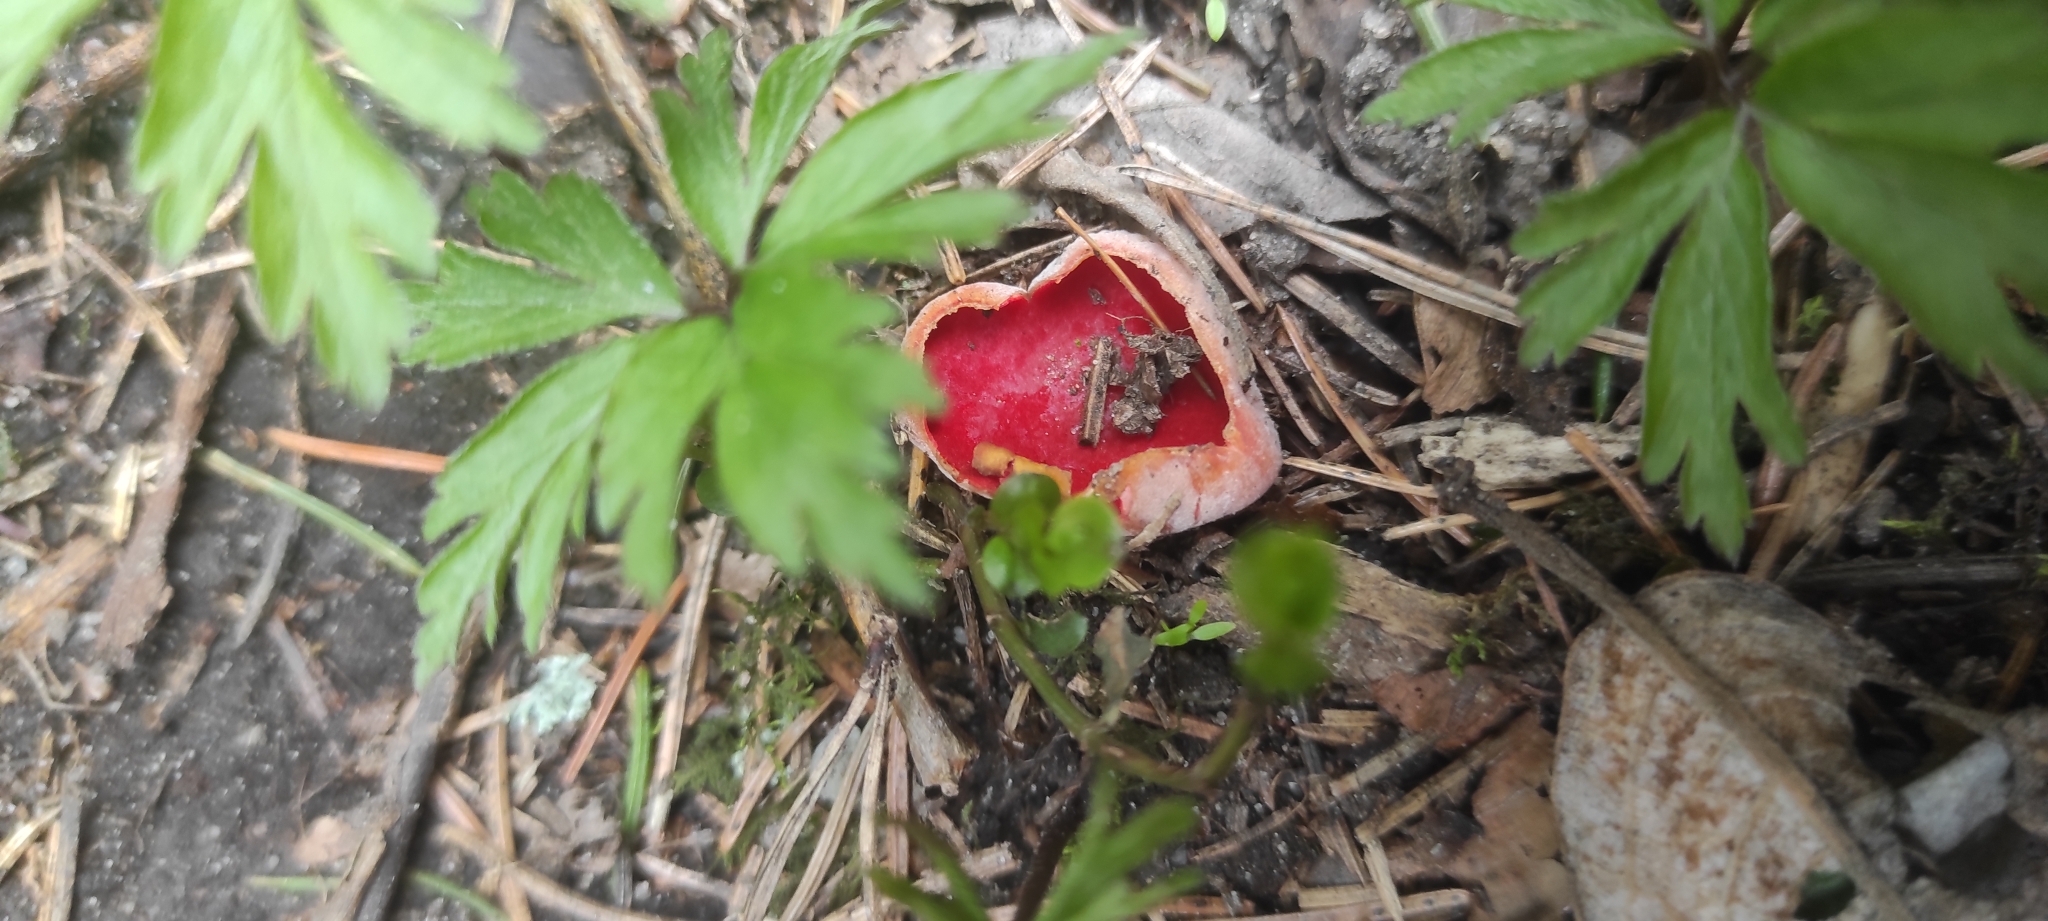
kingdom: Fungi
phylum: Ascomycota
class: Pezizomycetes
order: Pezizales
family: Sarcoscyphaceae
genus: Sarcoscypha
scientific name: Sarcoscypha austriaca
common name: Scarlet elfcup
